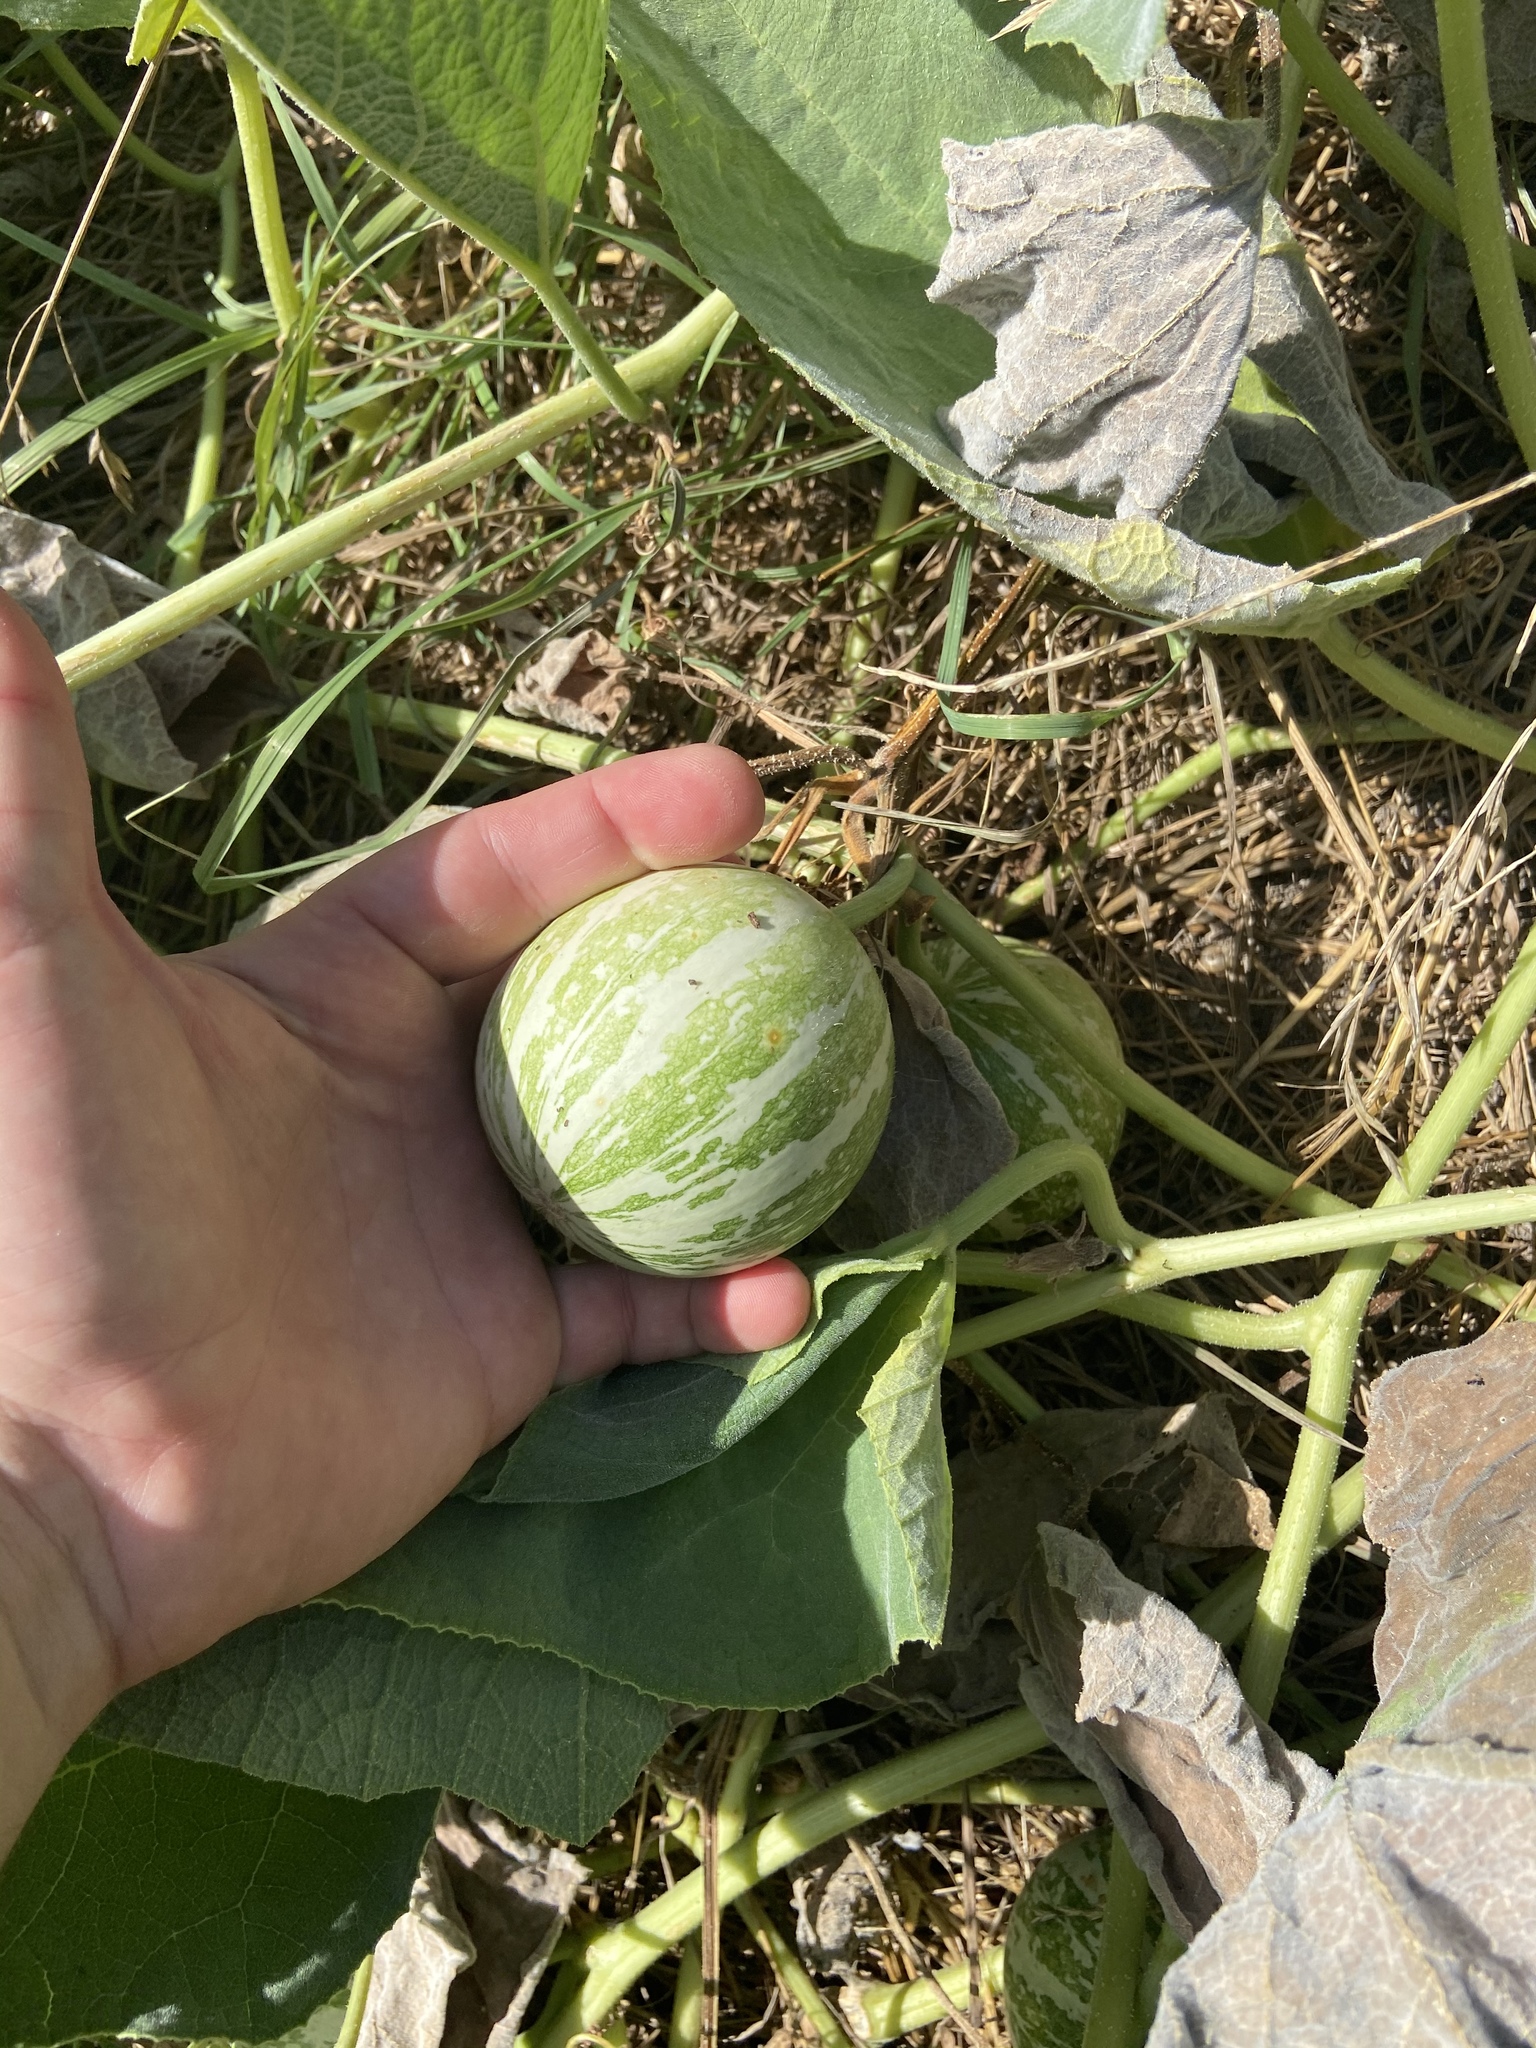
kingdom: Plantae
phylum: Tracheophyta
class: Magnoliopsida
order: Cucurbitales
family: Cucurbitaceae
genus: Cucurbita
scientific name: Cucurbita foetidissima
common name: Buffalo gourd
